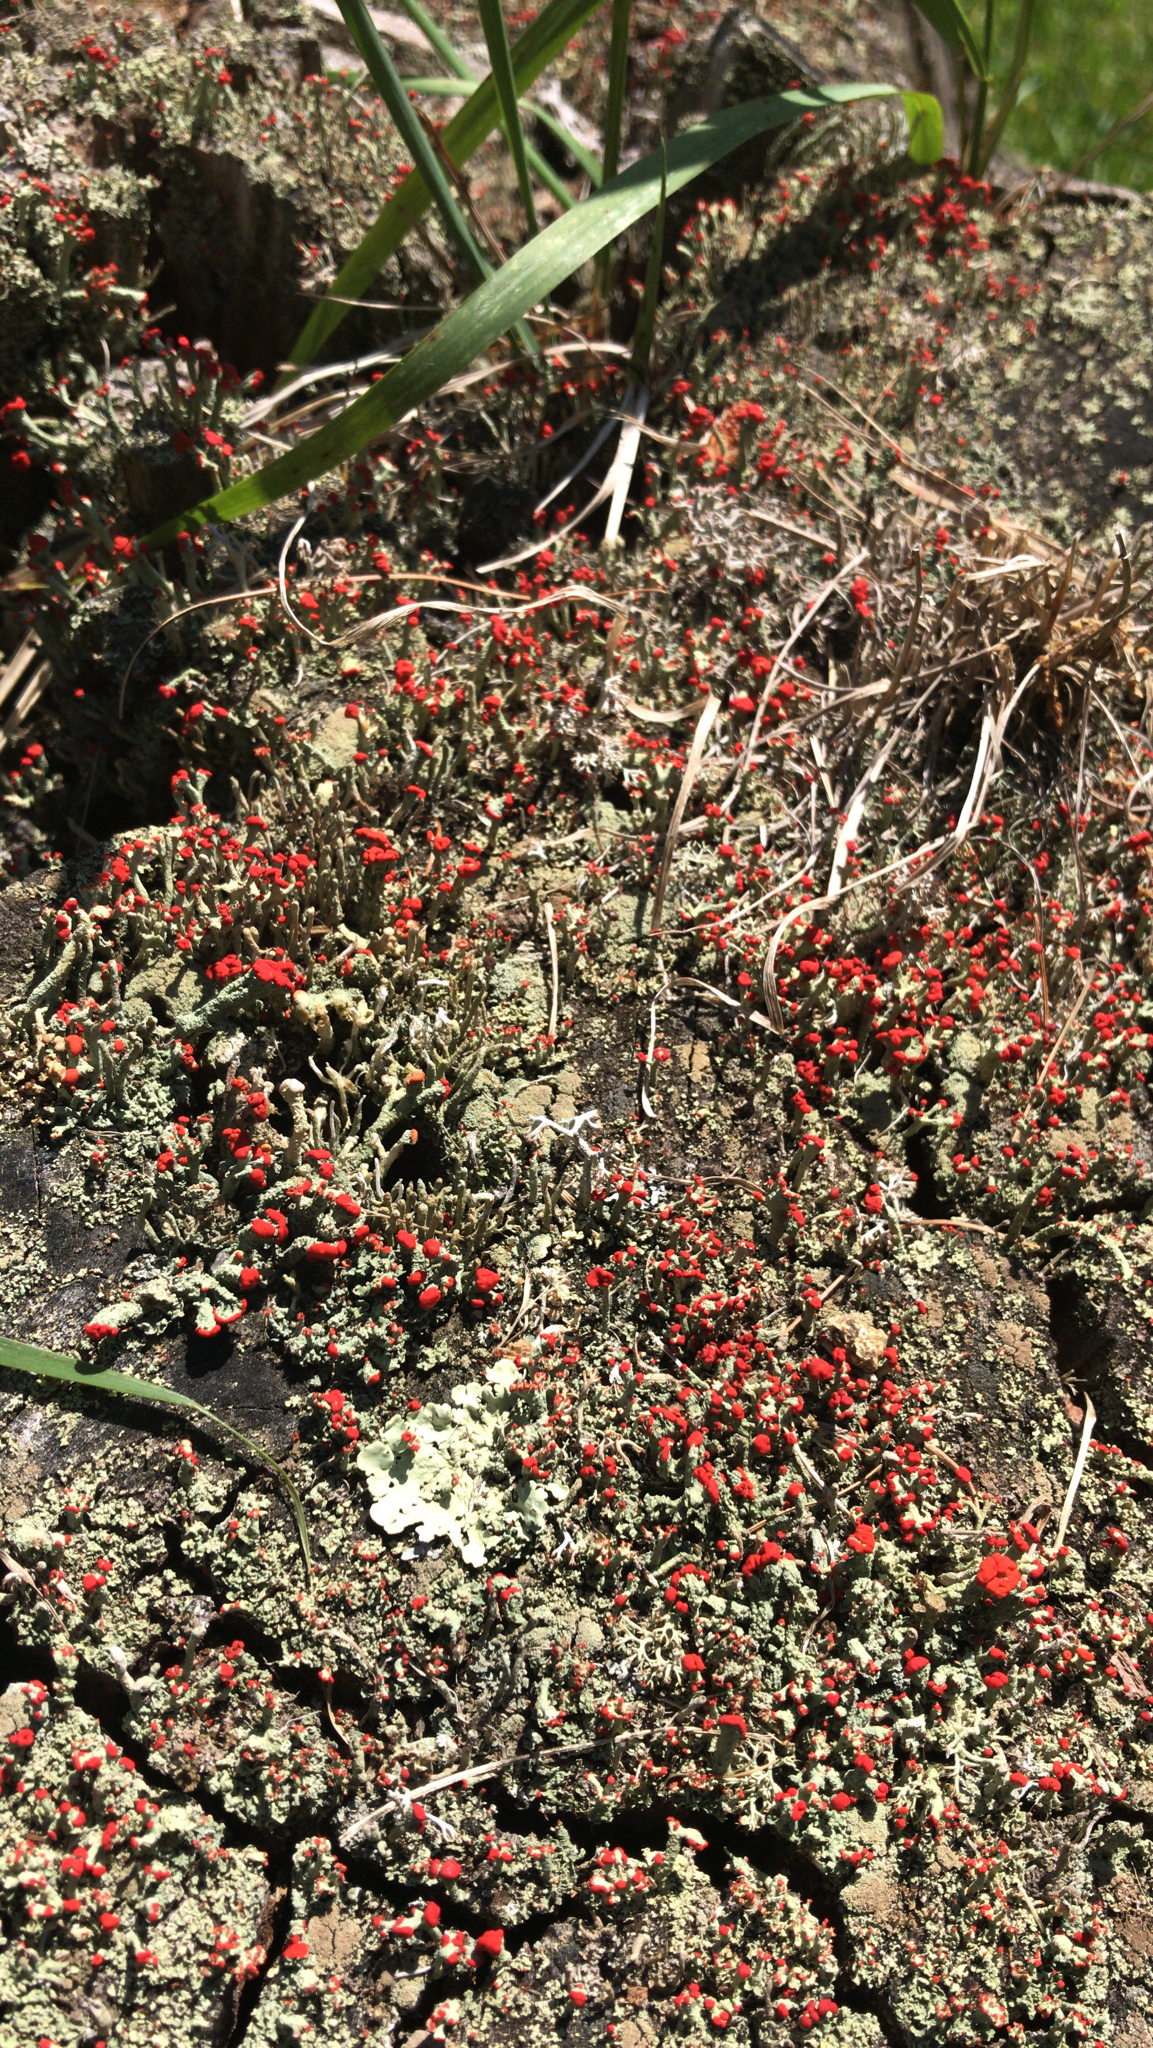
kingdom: Fungi
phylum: Ascomycota
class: Lecanoromycetes
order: Lecanorales
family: Cladoniaceae
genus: Cladonia
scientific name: Cladonia cristatella
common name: British soldier lichen
